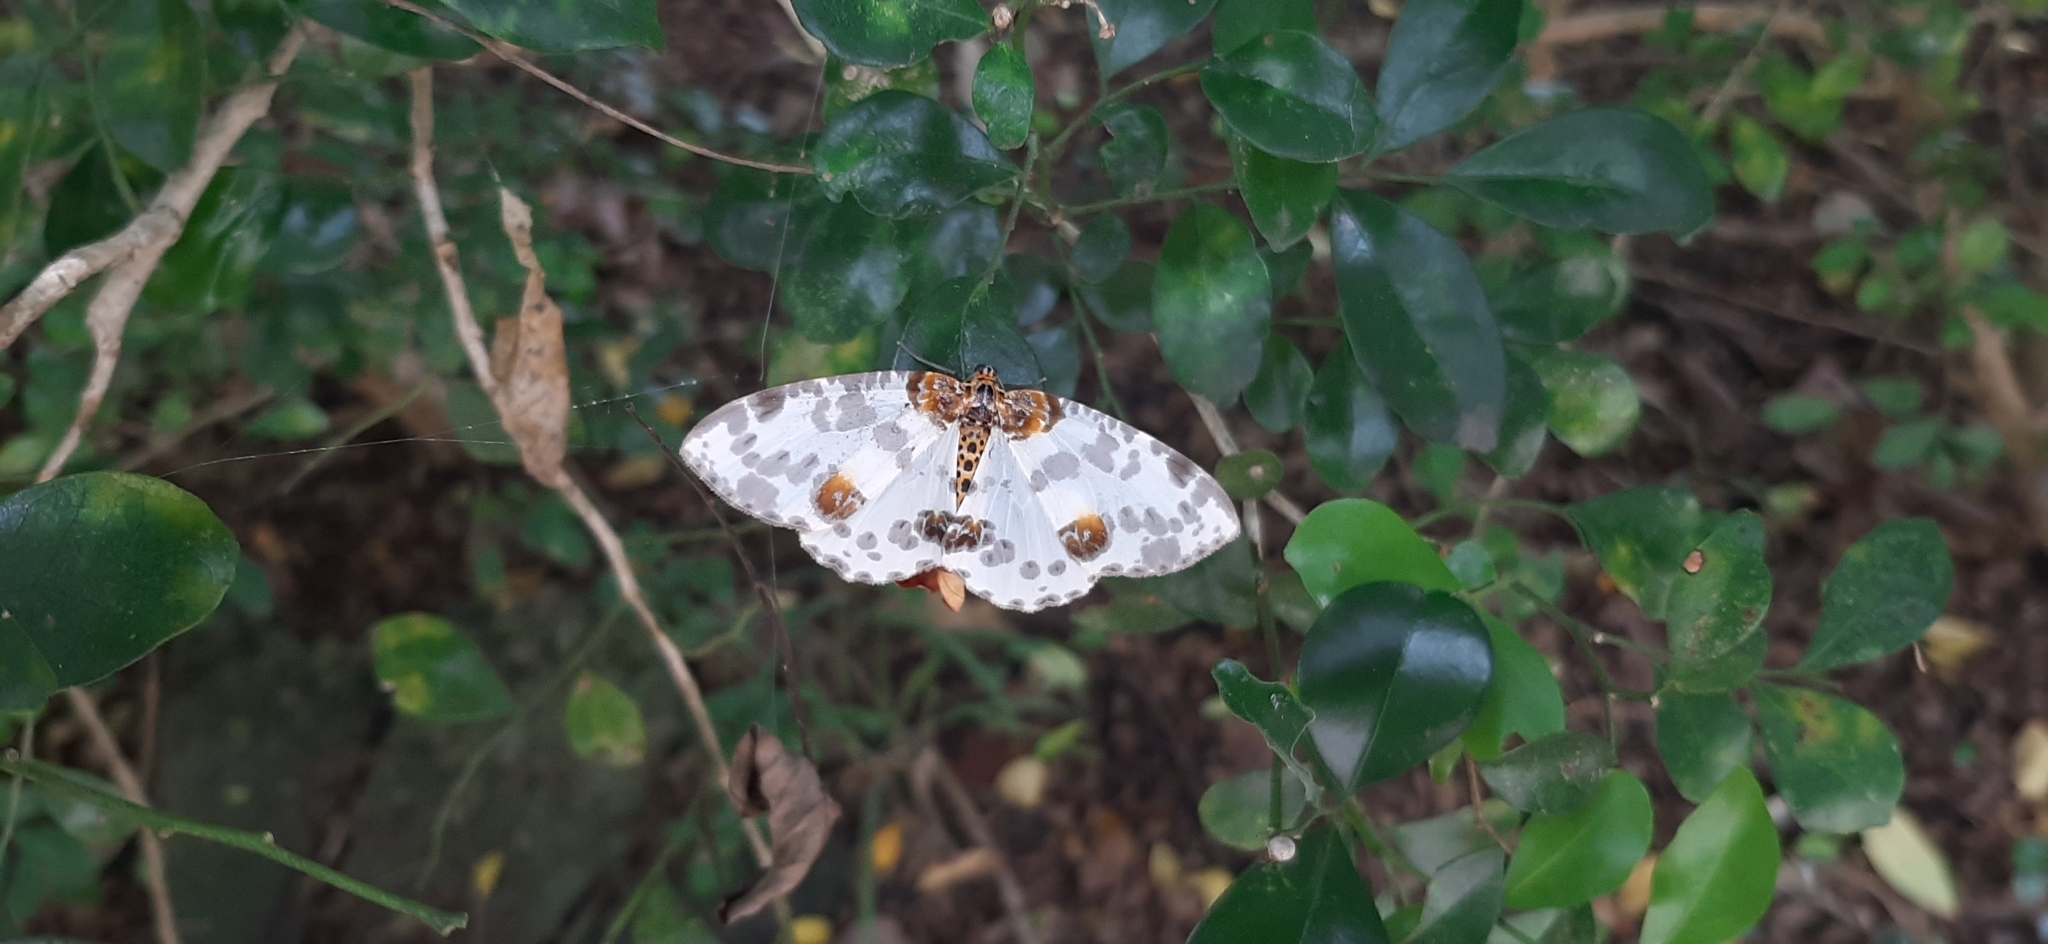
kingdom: Animalia
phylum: Arthropoda
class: Insecta
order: Lepidoptera
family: Geometridae
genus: Abraxas
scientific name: Abraxas illuminata
